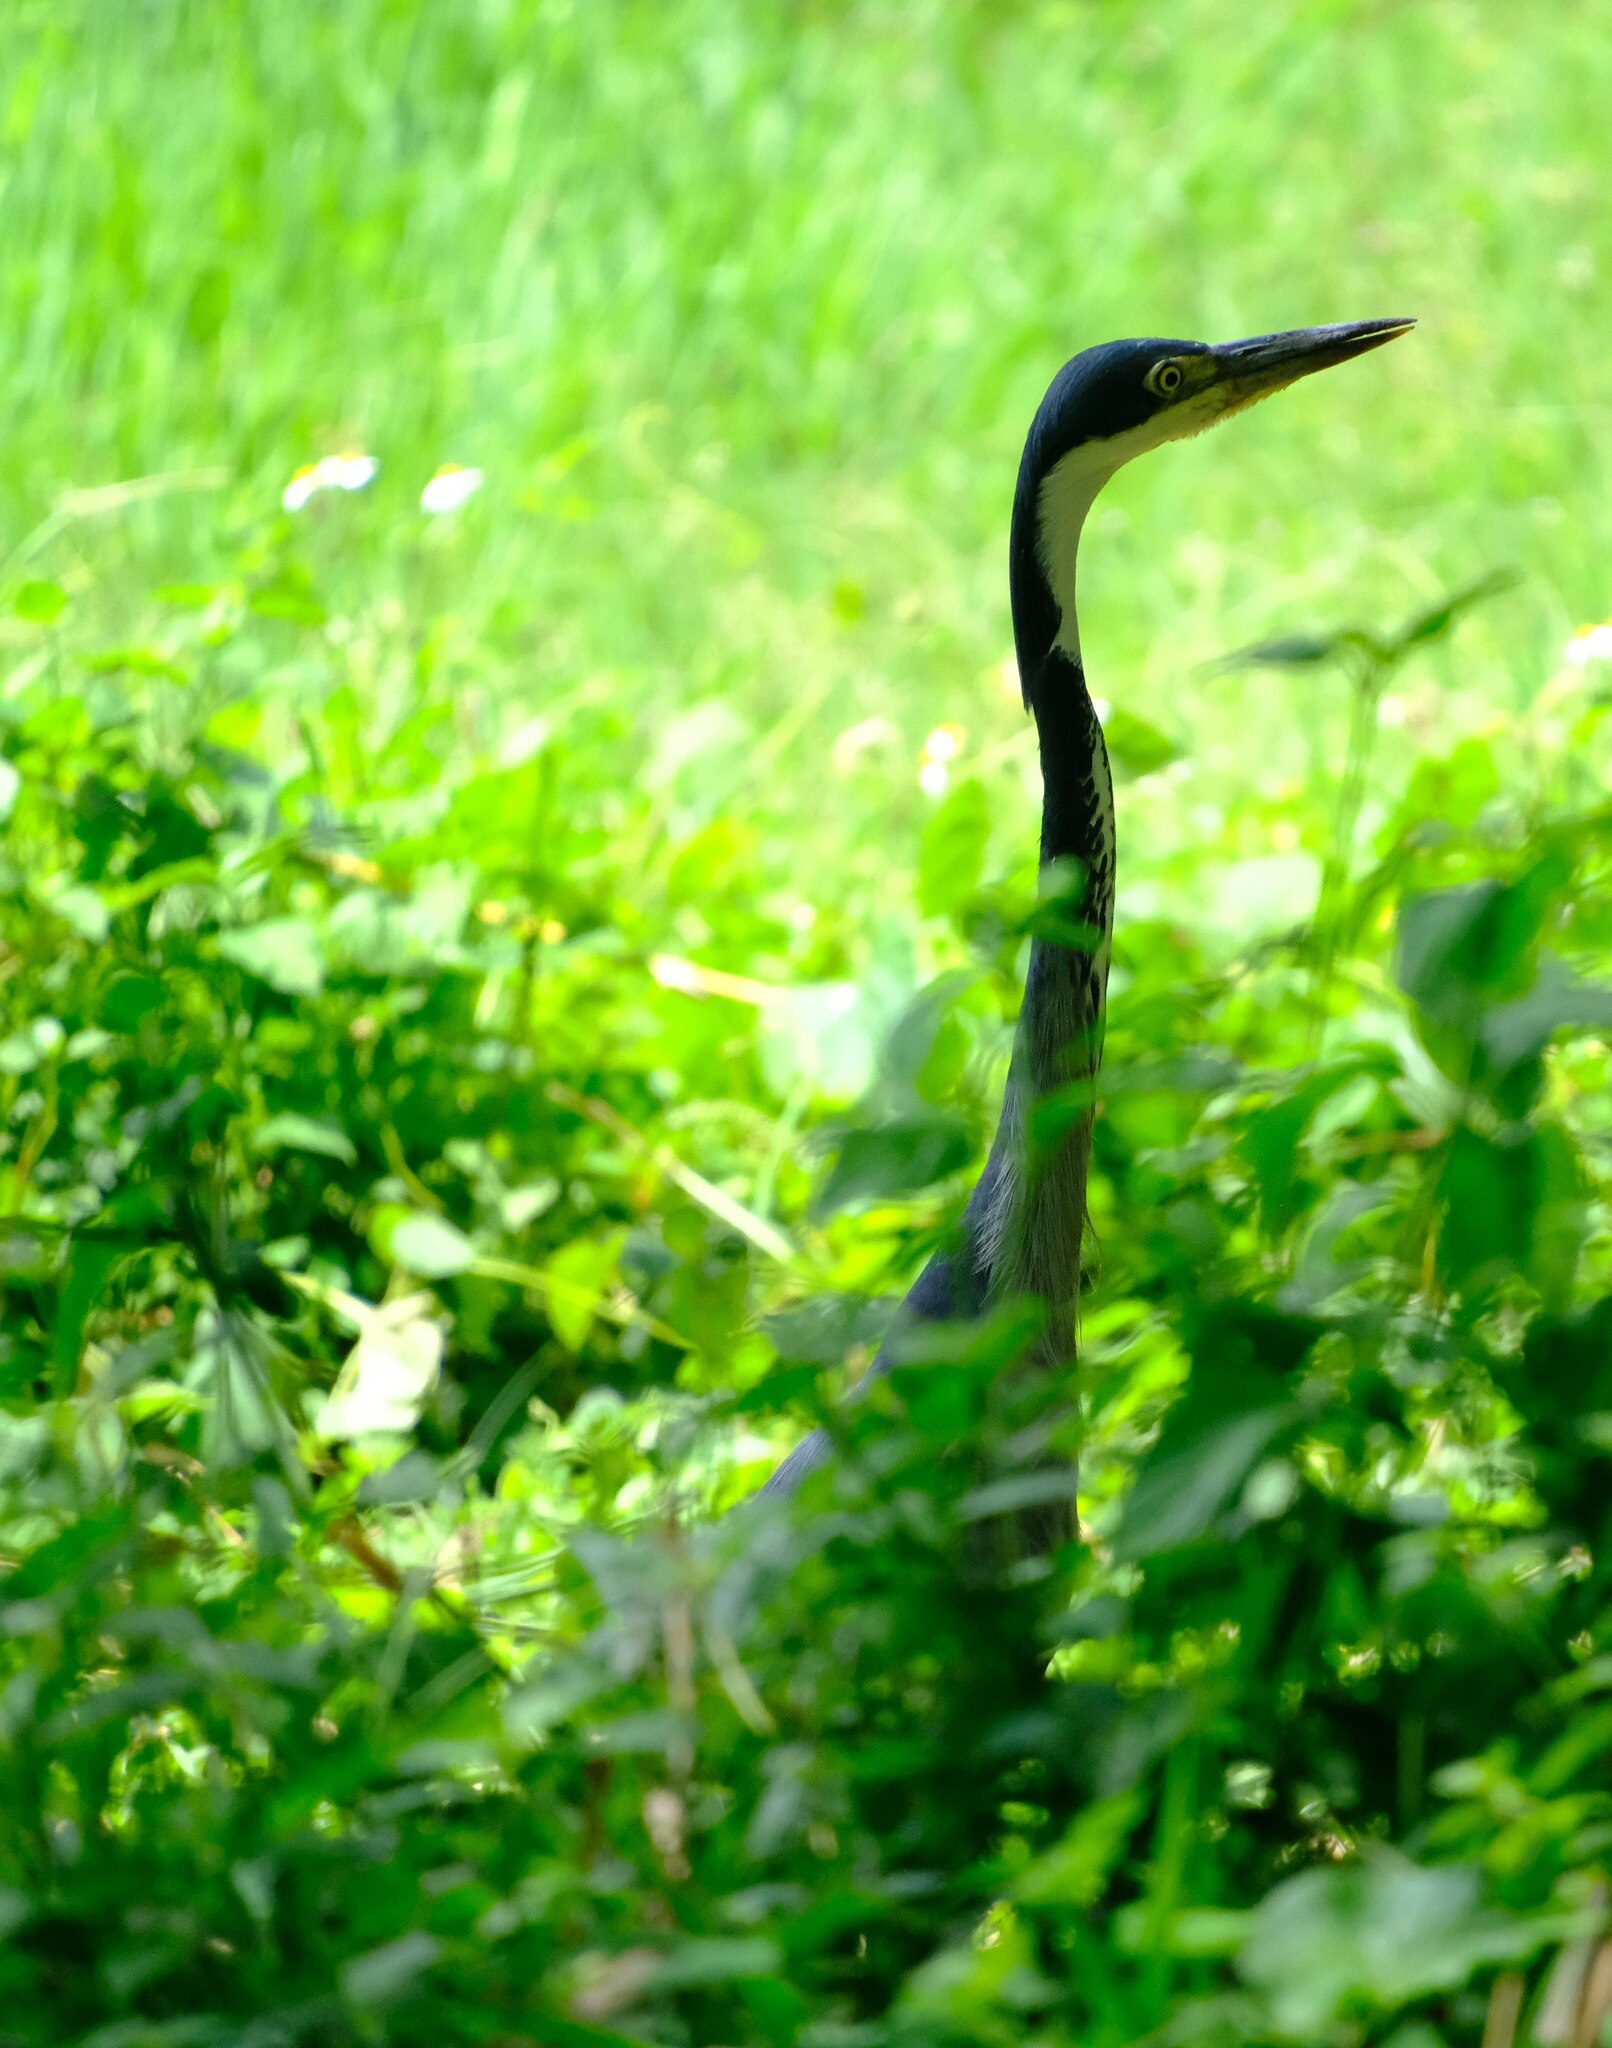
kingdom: Animalia
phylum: Chordata
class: Aves
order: Pelecaniformes
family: Ardeidae
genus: Ardea
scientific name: Ardea melanocephala
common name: Black-headed heron
